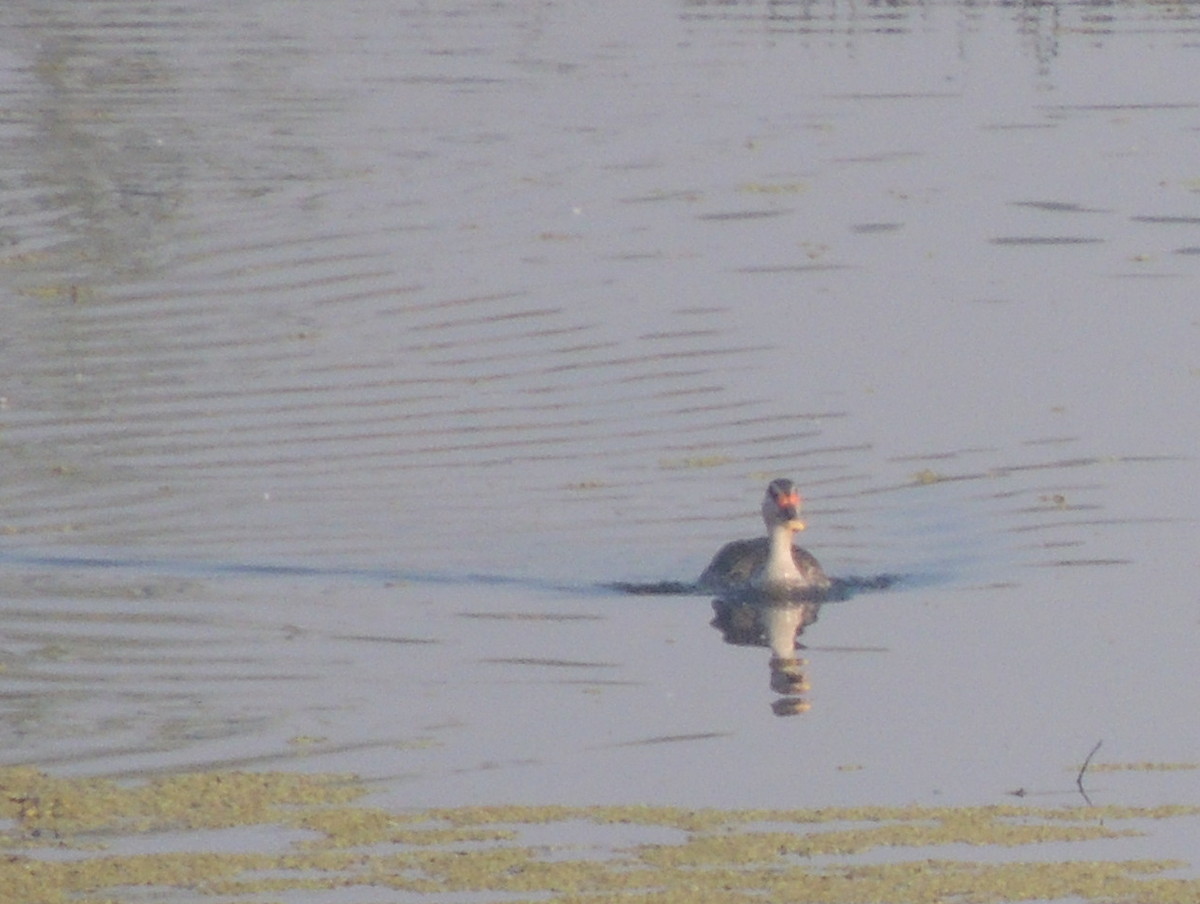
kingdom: Animalia
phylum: Chordata
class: Aves
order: Anseriformes
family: Anatidae
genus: Anas
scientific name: Anas poecilorhyncha
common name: Indian spot-billed duck
